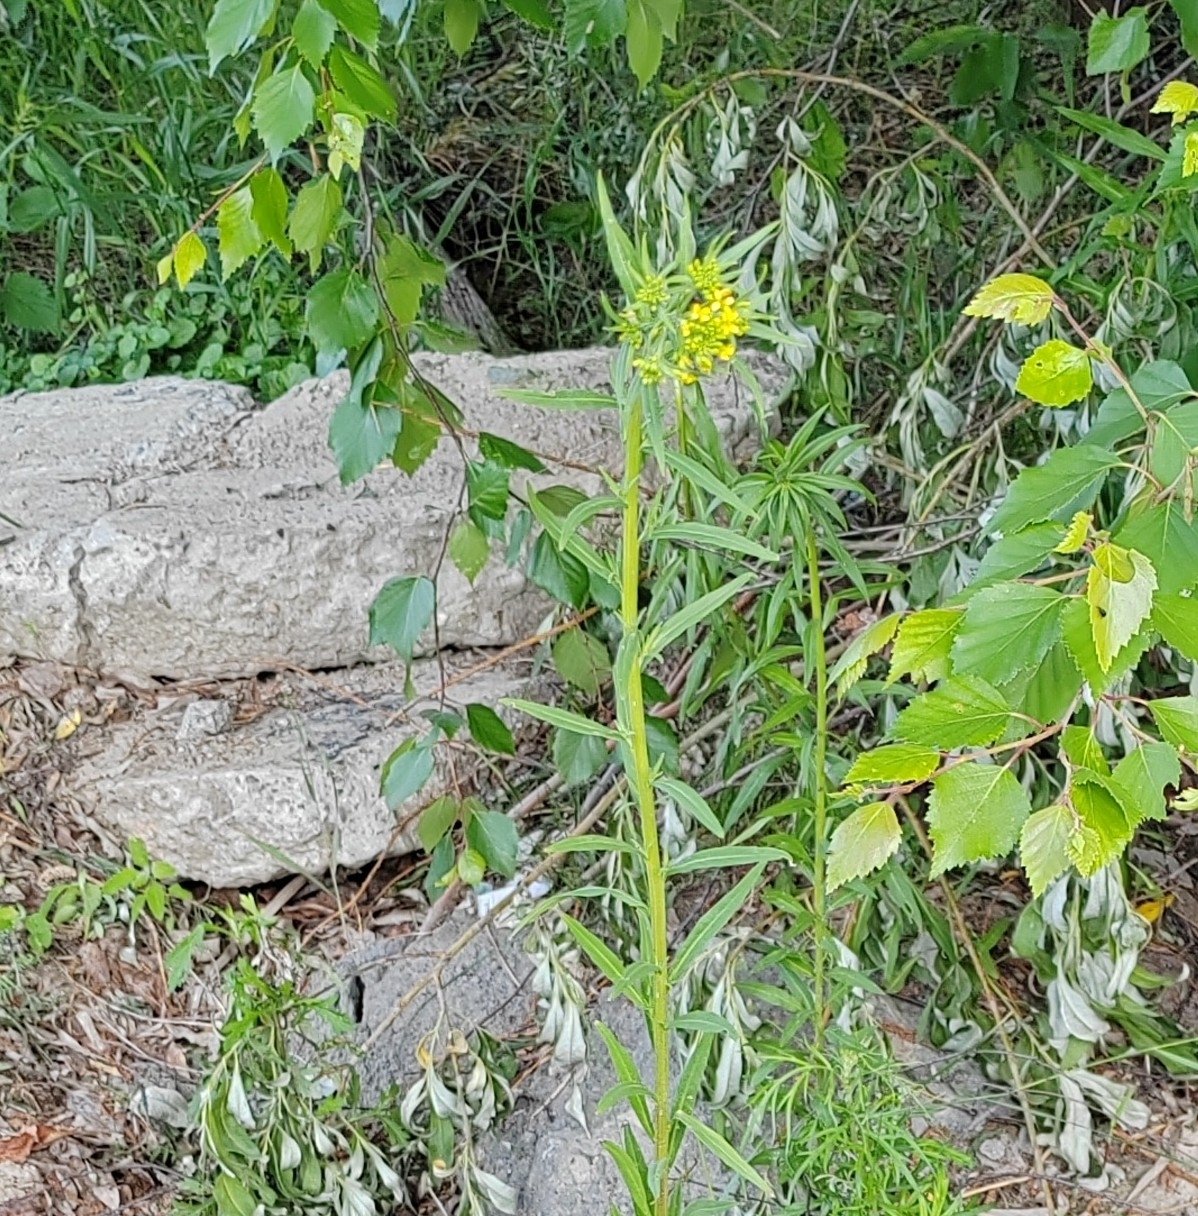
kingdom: Plantae
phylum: Tracheophyta
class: Magnoliopsida
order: Brassicales
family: Brassicaceae
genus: Erysimum
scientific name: Erysimum cheiranthoides
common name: Treacle mustard
